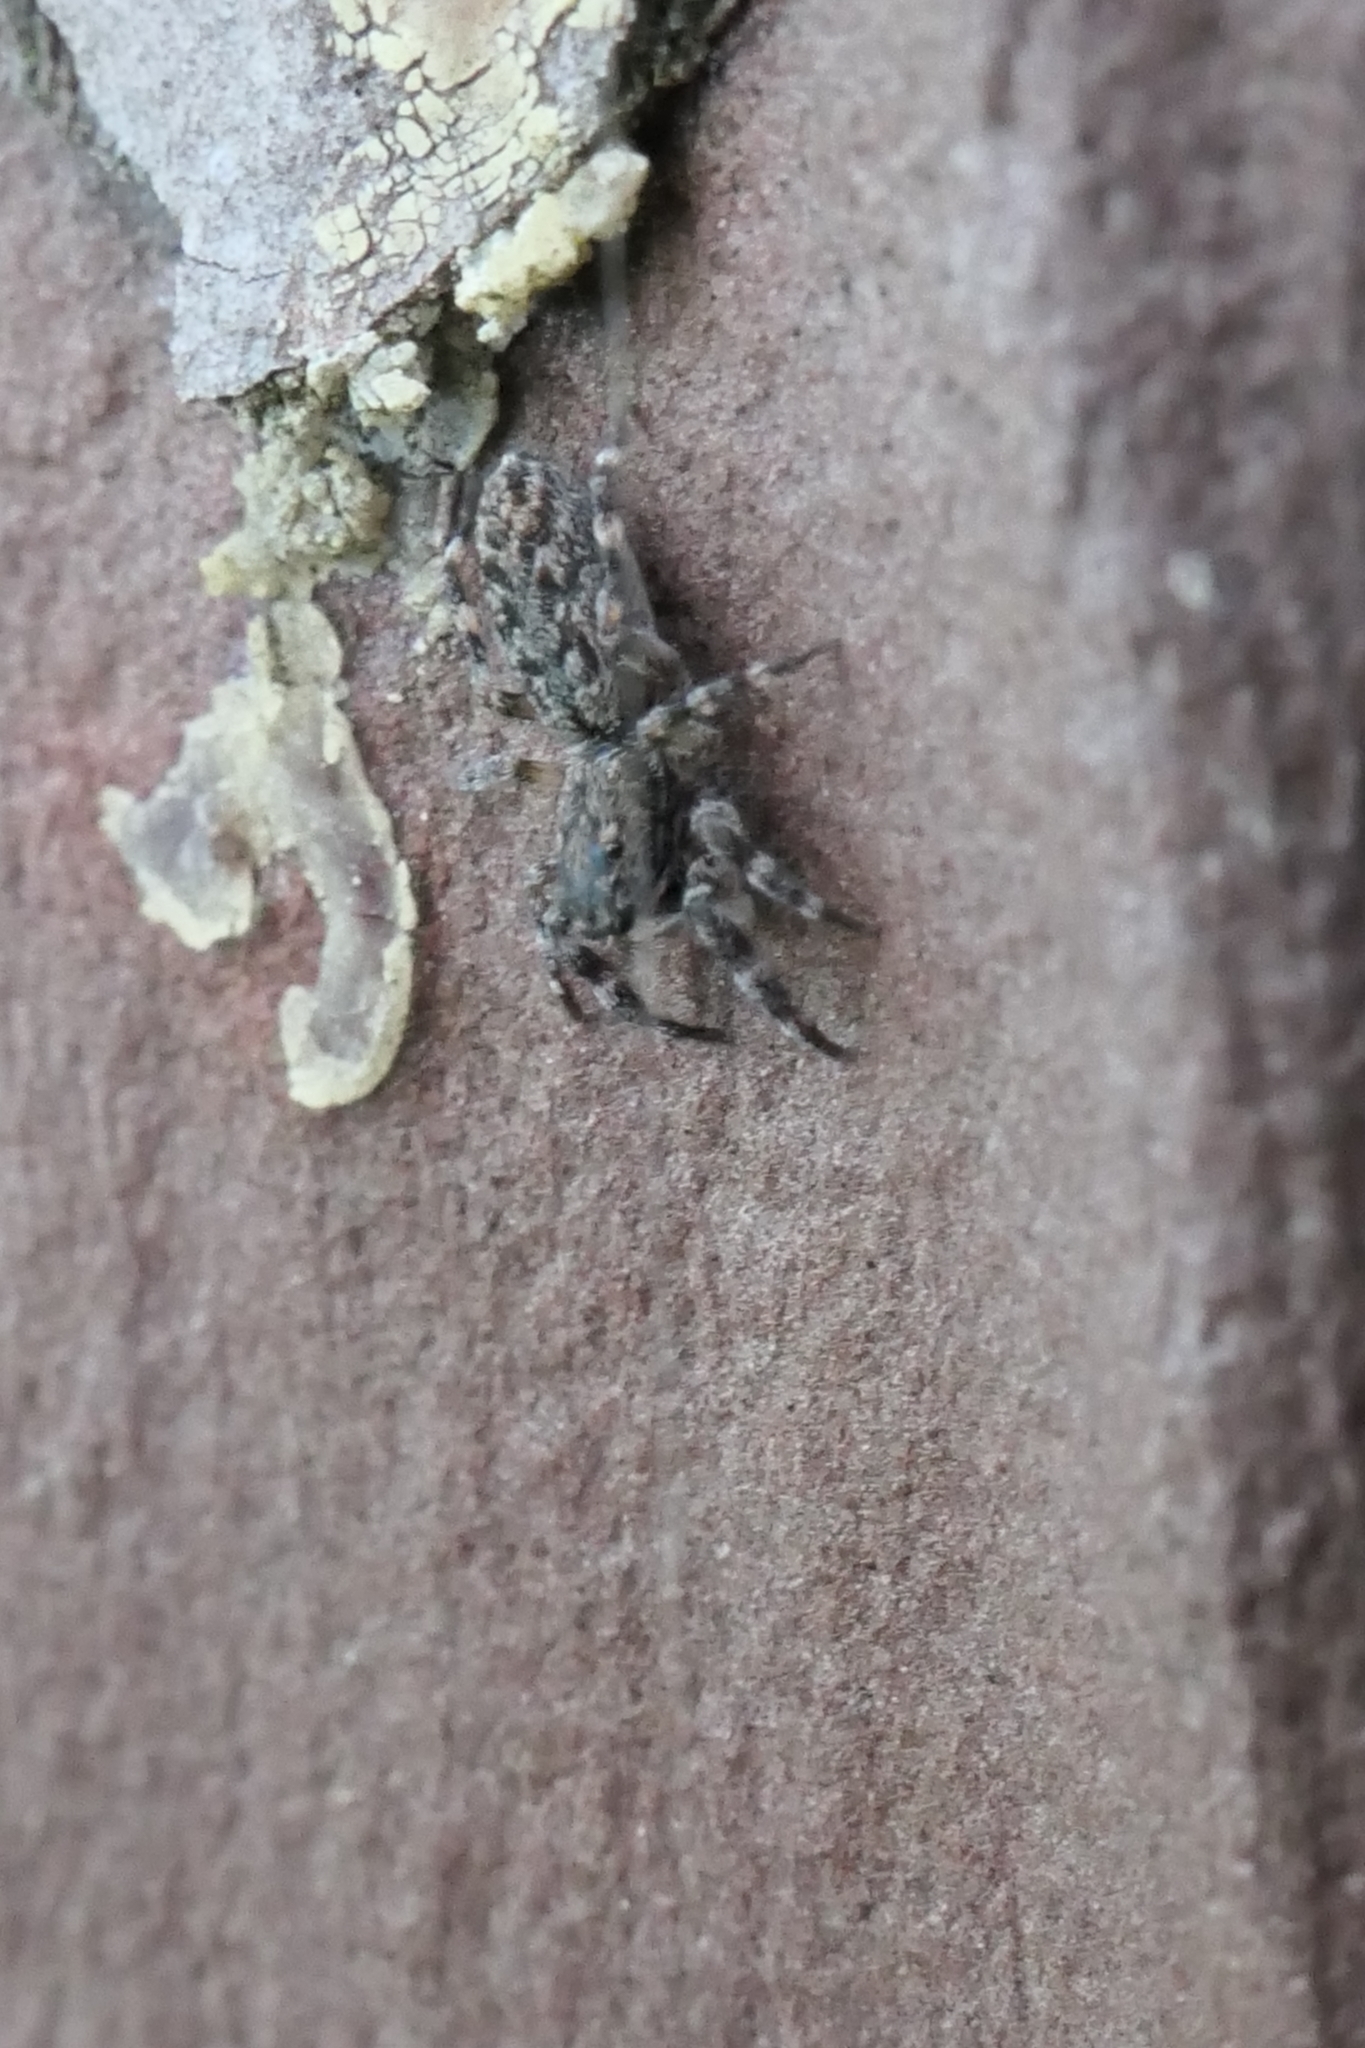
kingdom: Animalia
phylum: Arthropoda
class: Arachnida
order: Araneae
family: Salticidae
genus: Adoxotoma
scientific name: Adoxotoma forsteri
